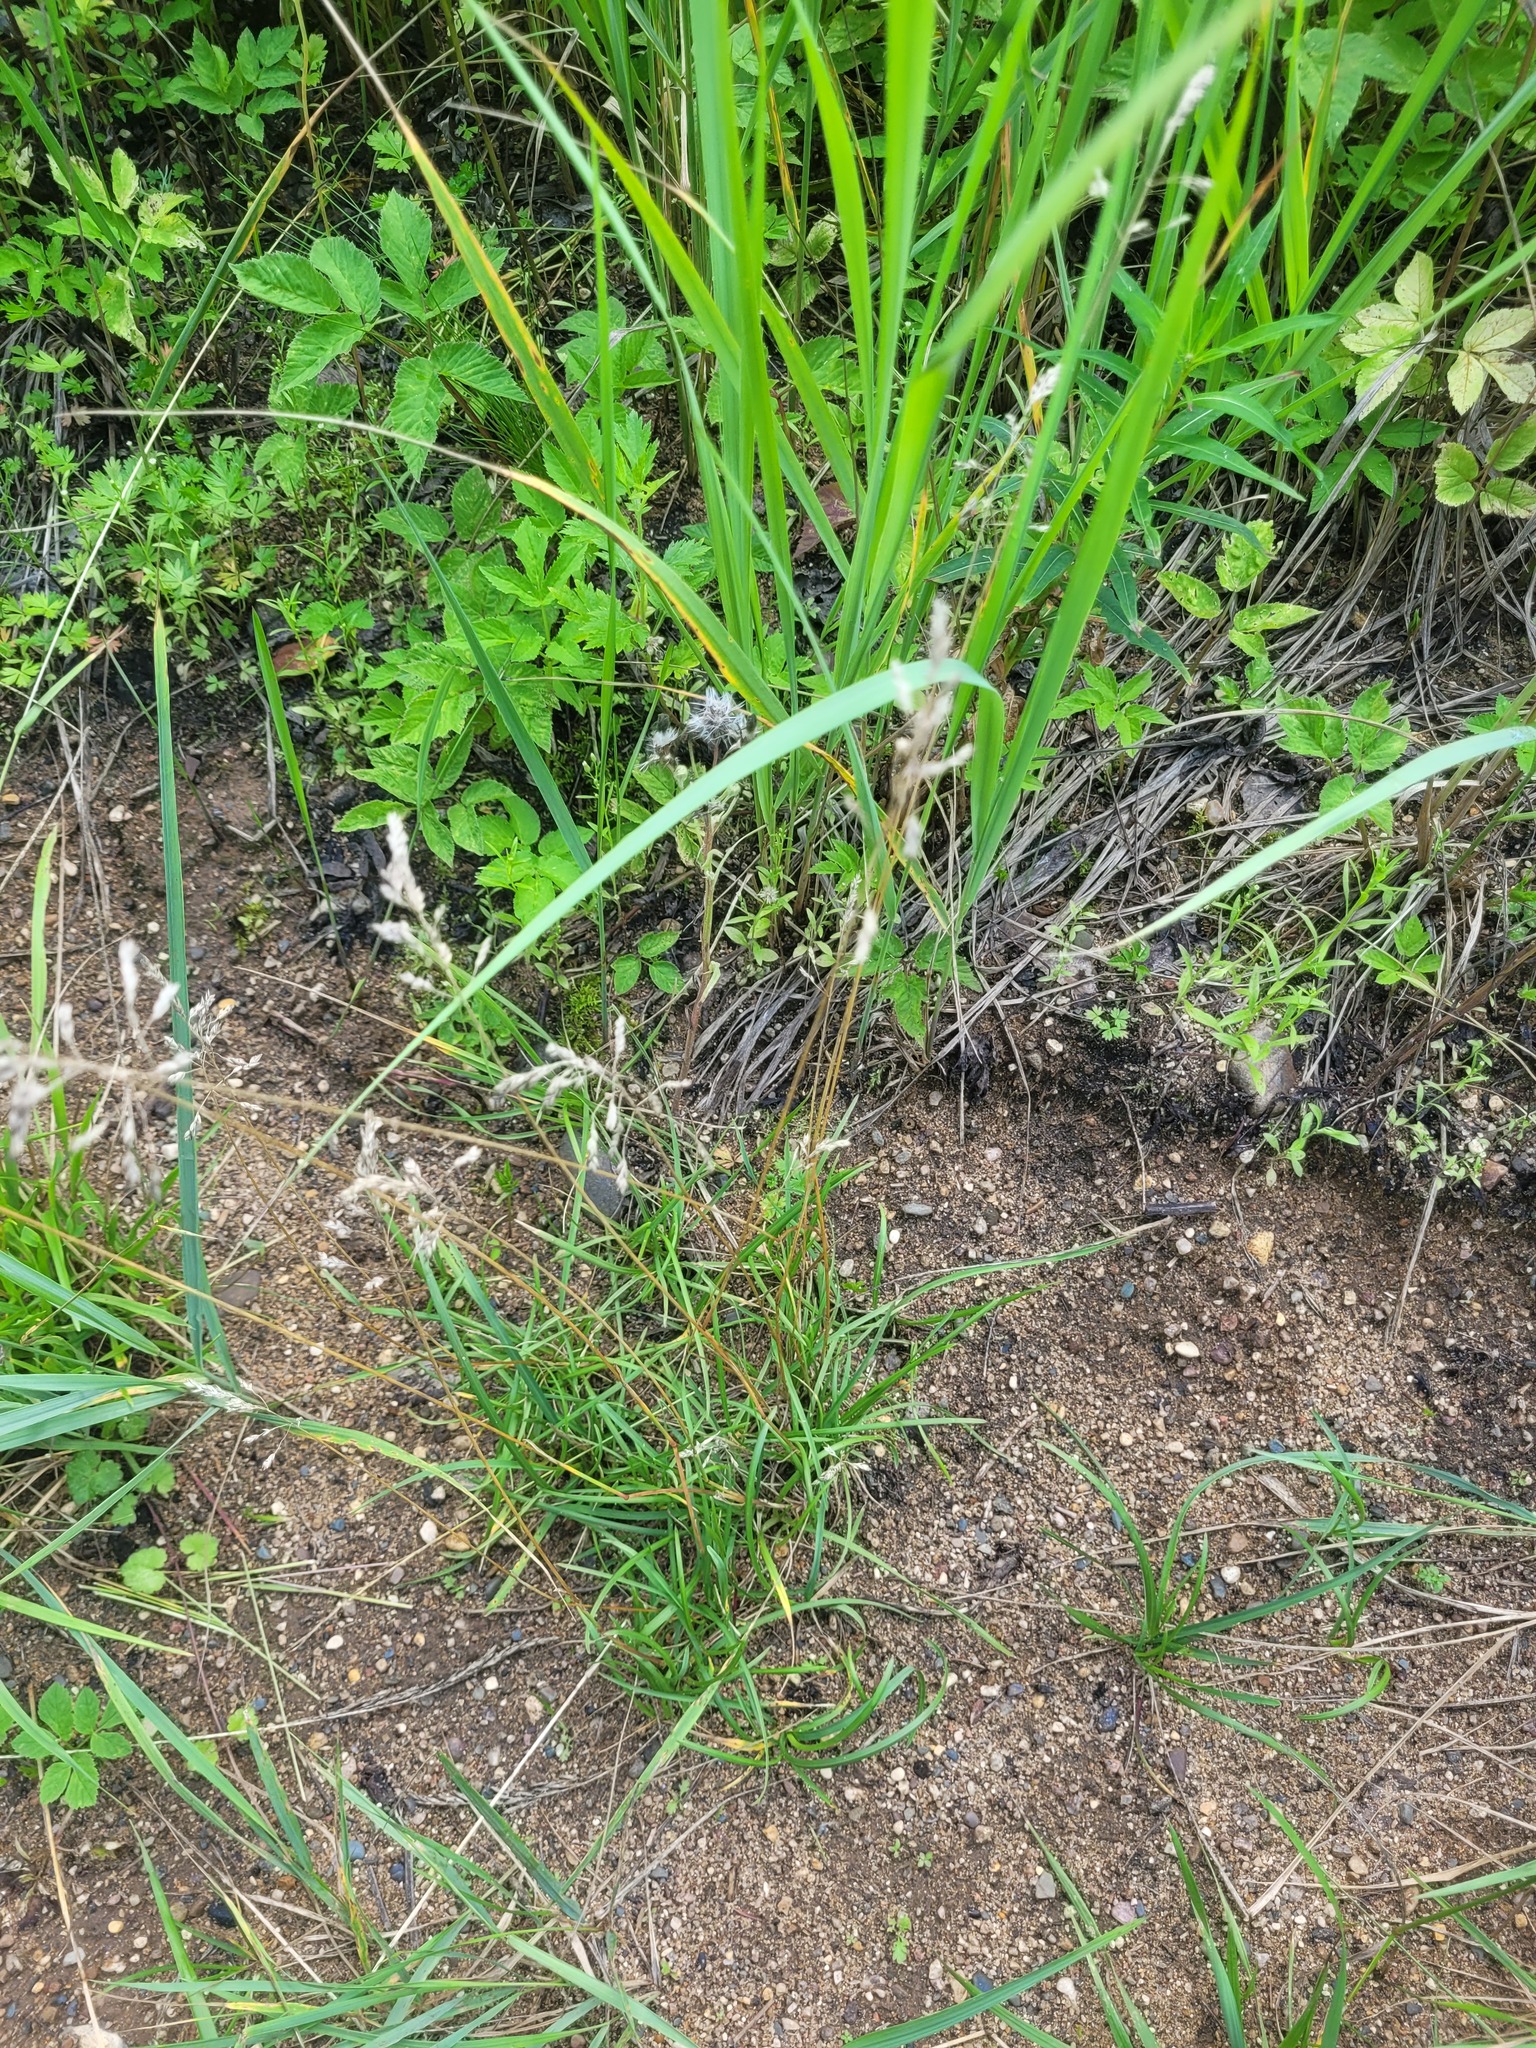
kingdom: Plantae
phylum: Tracheophyta
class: Liliopsida
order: Poales
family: Poaceae
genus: Poa
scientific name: Poa pratensis
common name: Kentucky bluegrass
